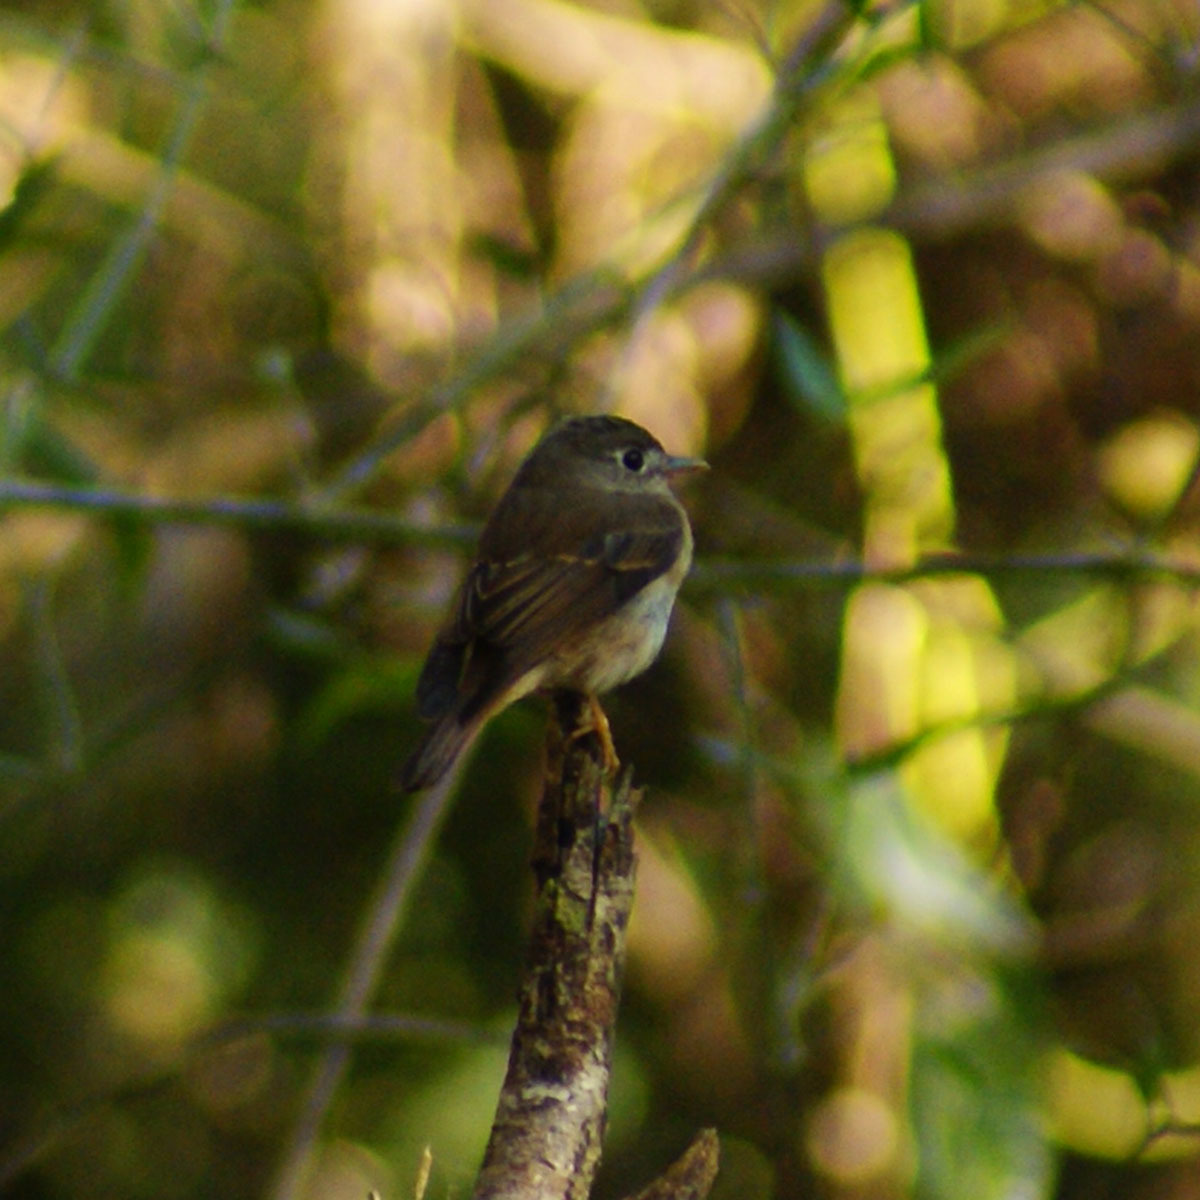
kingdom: Animalia
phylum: Chordata
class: Aves
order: Passeriformes
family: Muscicapidae
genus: Muscicapa
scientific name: Muscicapa muttui
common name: Brown-breasted flycatcher
